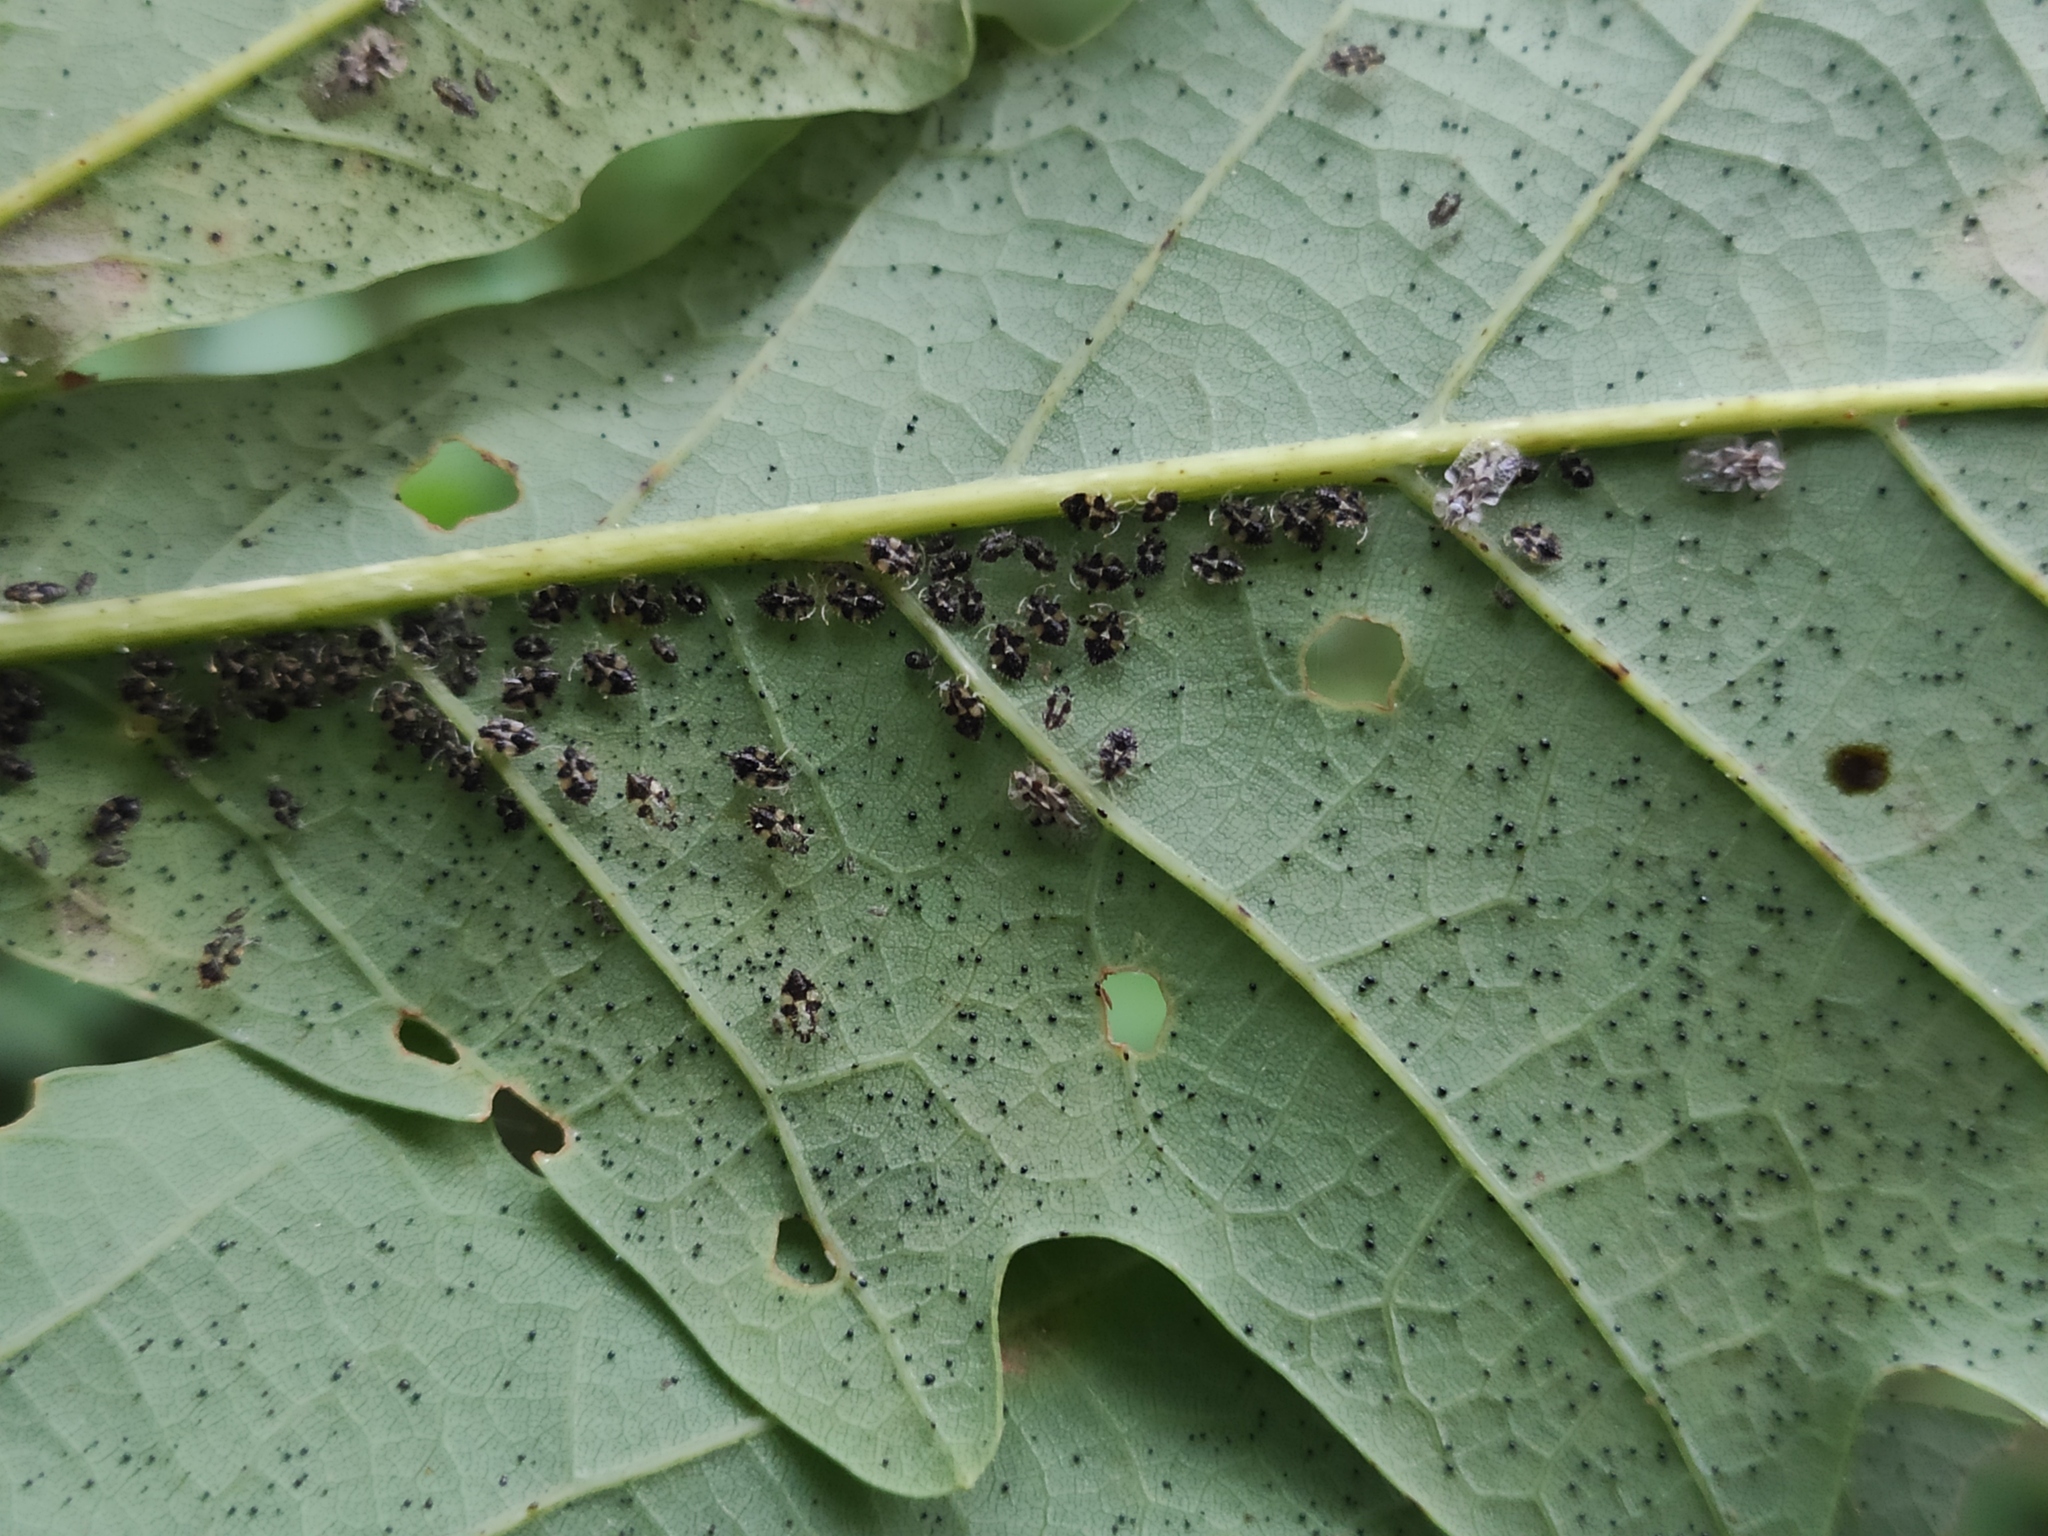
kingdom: Animalia
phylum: Arthropoda
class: Insecta
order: Hemiptera
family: Tingidae
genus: Corythucha
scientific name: Corythucha arcuata
